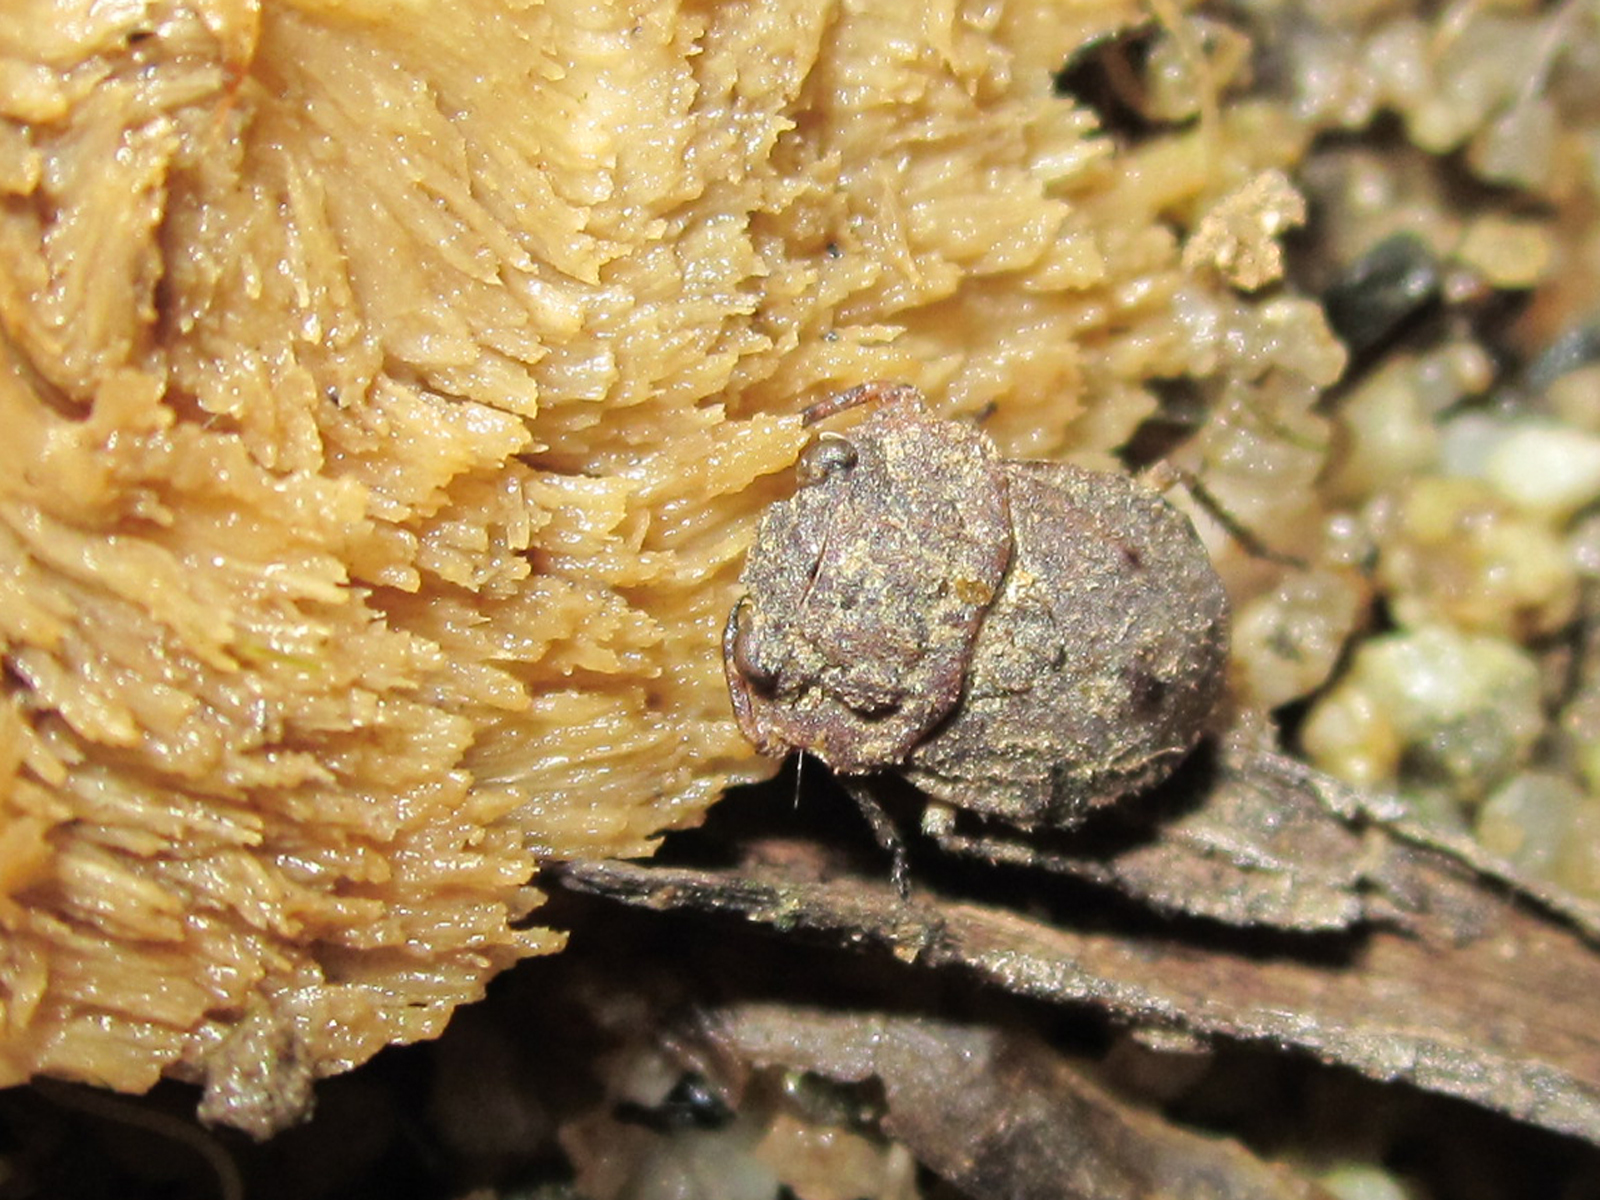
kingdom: Animalia
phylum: Arthropoda
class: Insecta
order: Hemiptera
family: Gelastocoridae
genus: Nerthra
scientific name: Nerthra parvula
